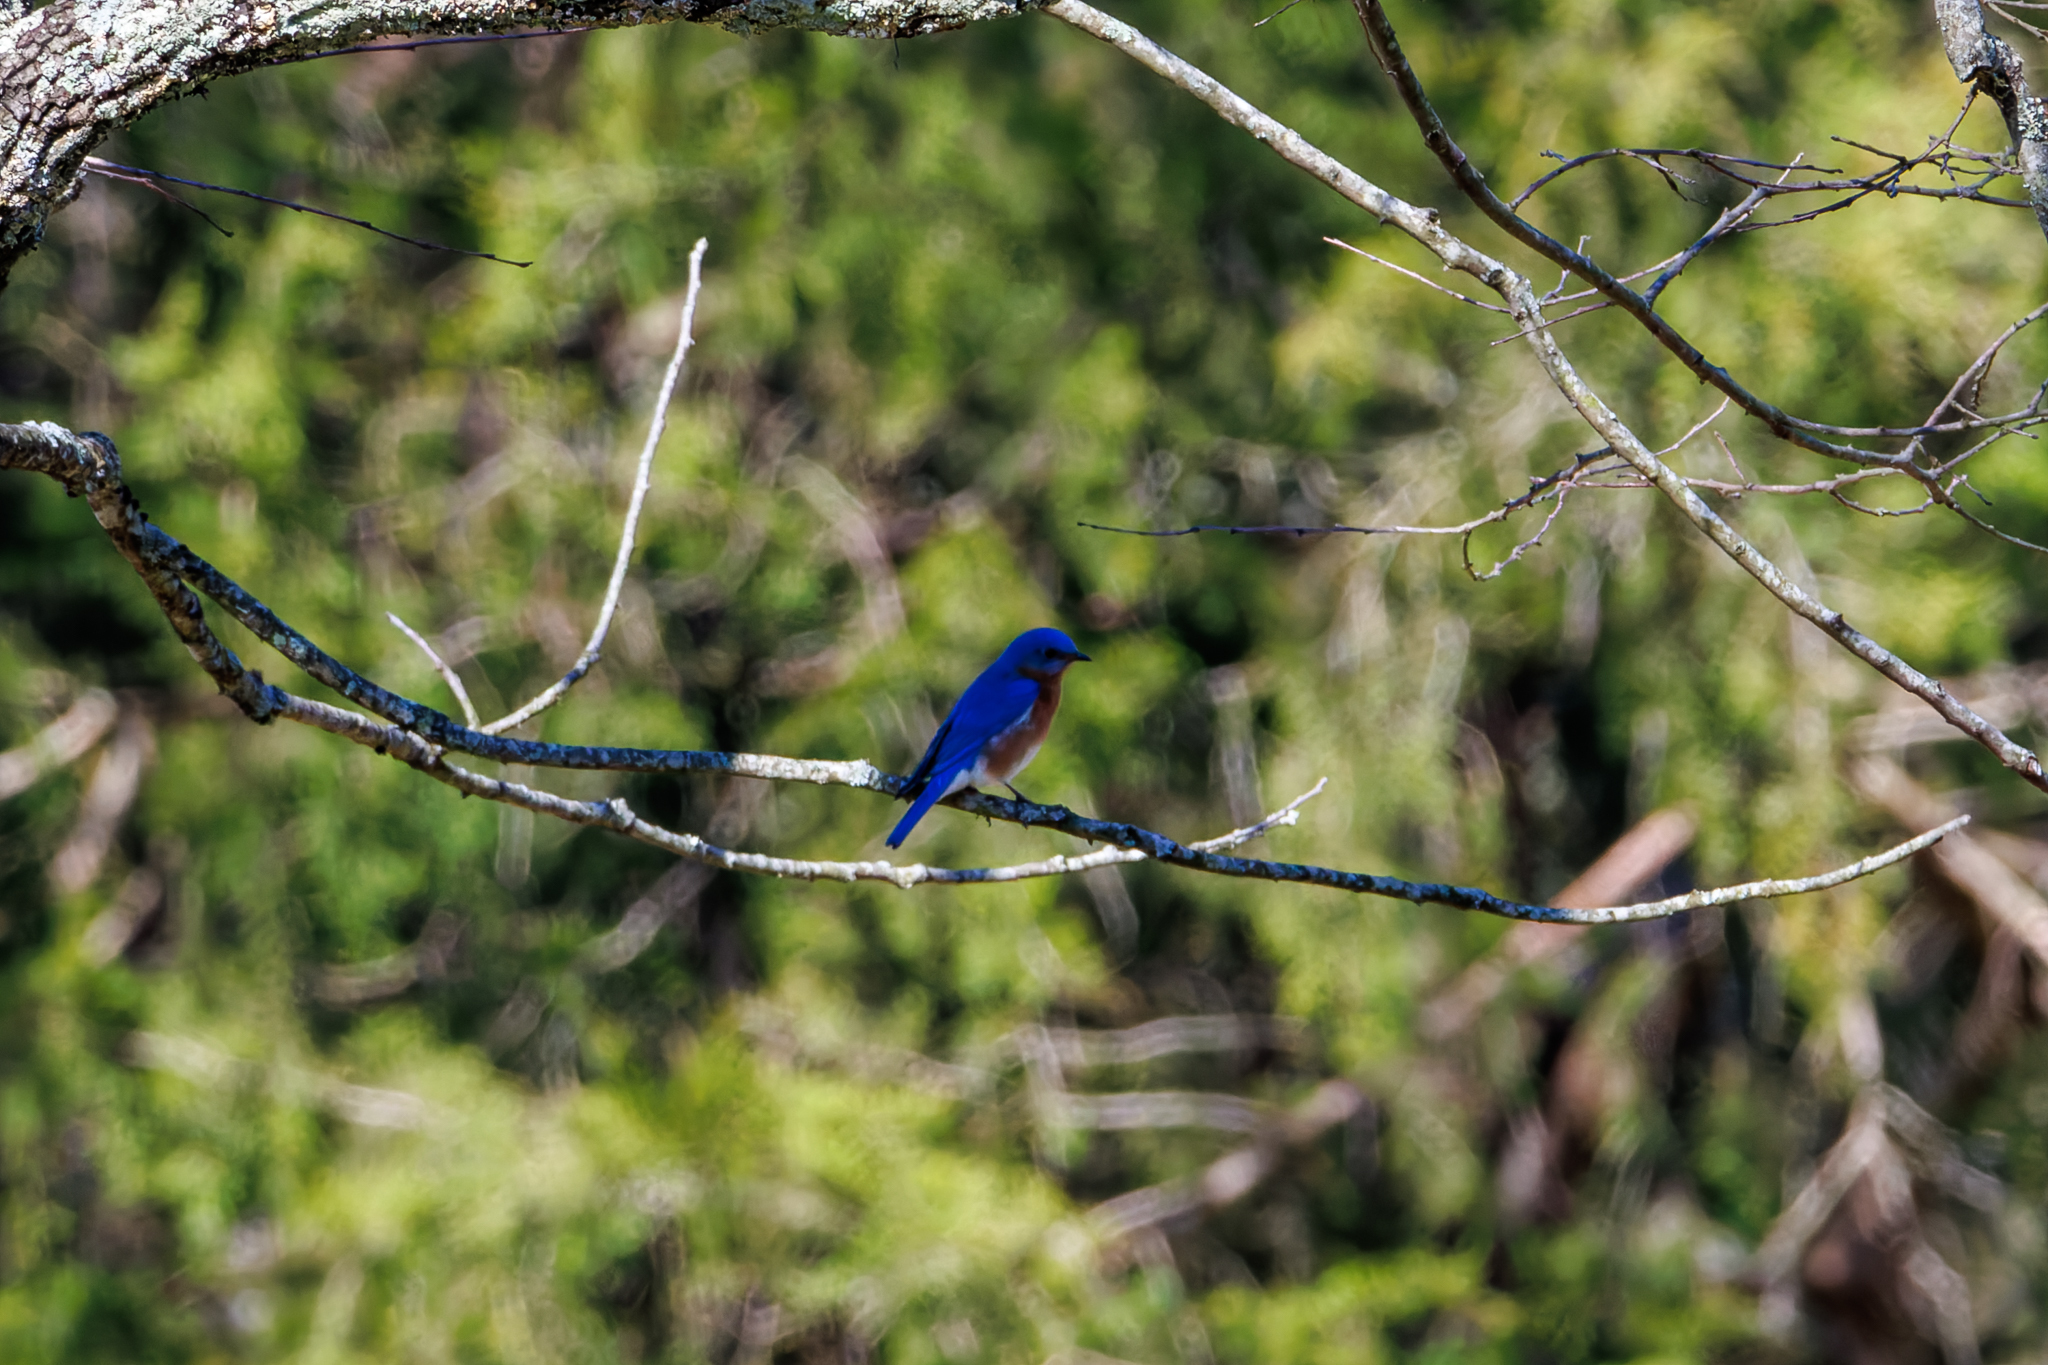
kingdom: Animalia
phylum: Chordata
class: Aves
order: Passeriformes
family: Turdidae
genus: Sialia
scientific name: Sialia sialis
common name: Eastern bluebird
